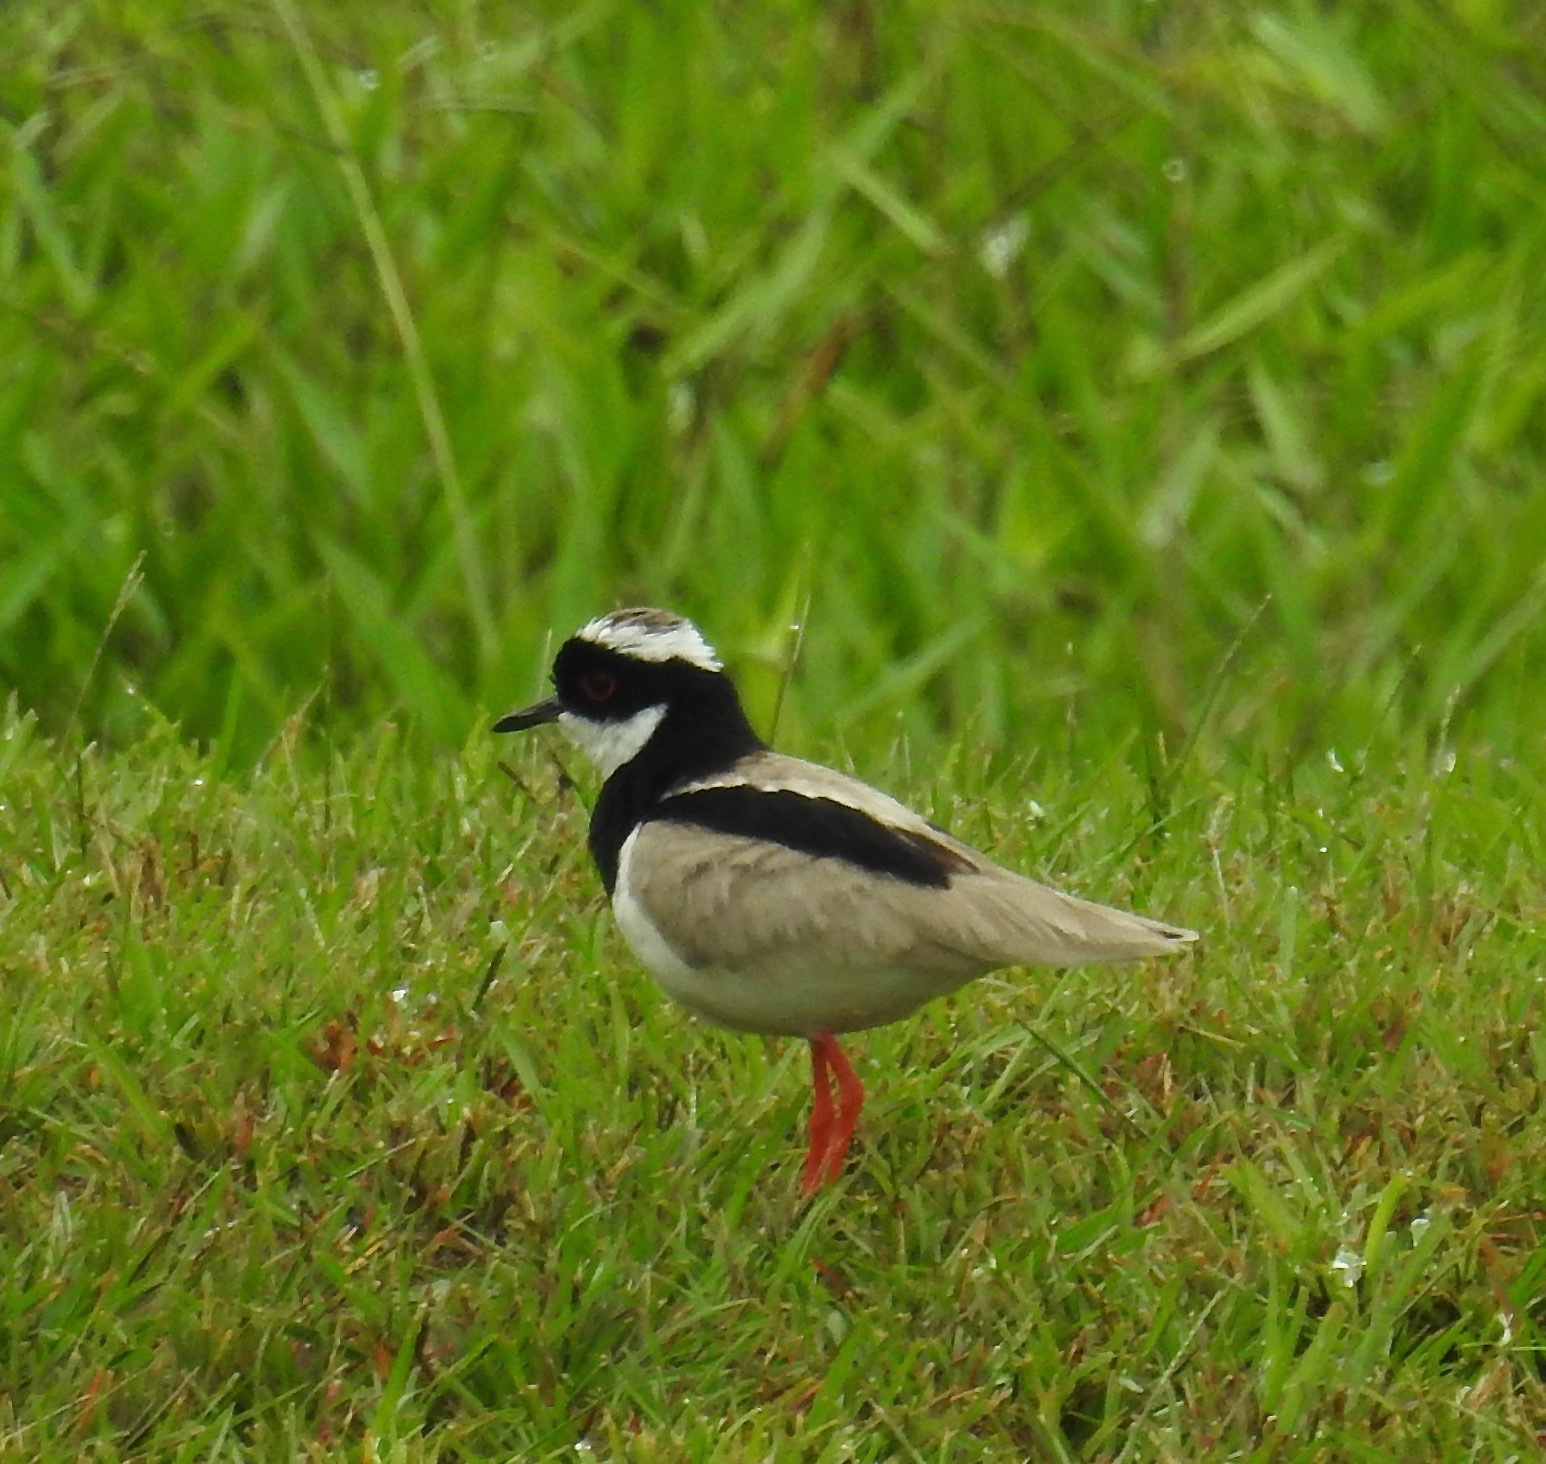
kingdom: Animalia
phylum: Chordata
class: Aves
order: Charadriiformes
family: Charadriidae
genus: Hoploxypterus
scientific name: Hoploxypterus cayanus
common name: Pied plover
